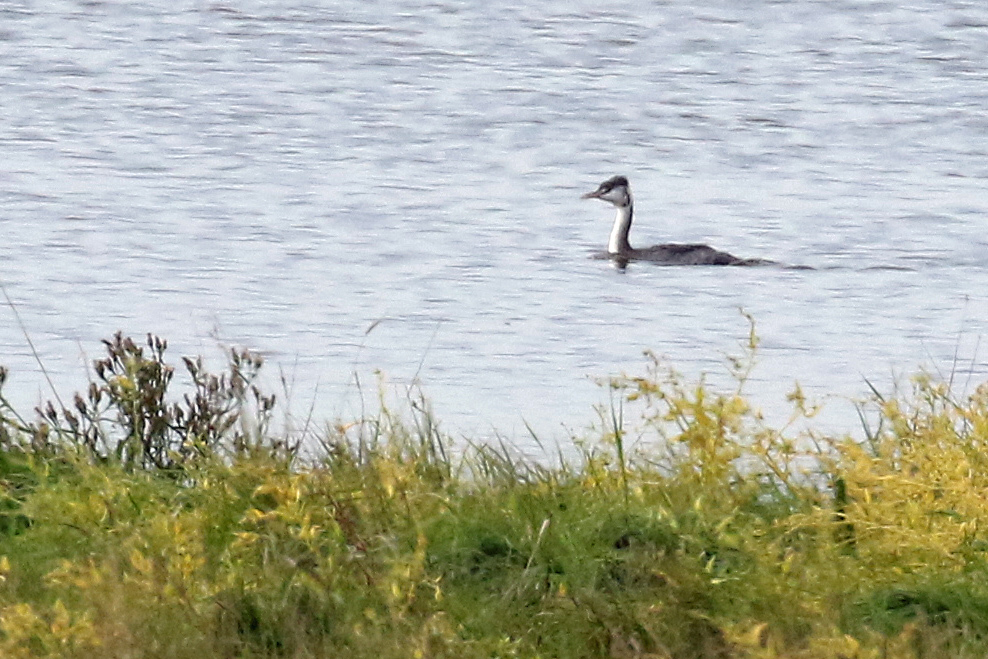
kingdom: Animalia
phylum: Chordata
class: Aves
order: Podicipediformes
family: Podicipedidae
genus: Podiceps
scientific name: Podiceps cristatus
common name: Great crested grebe
